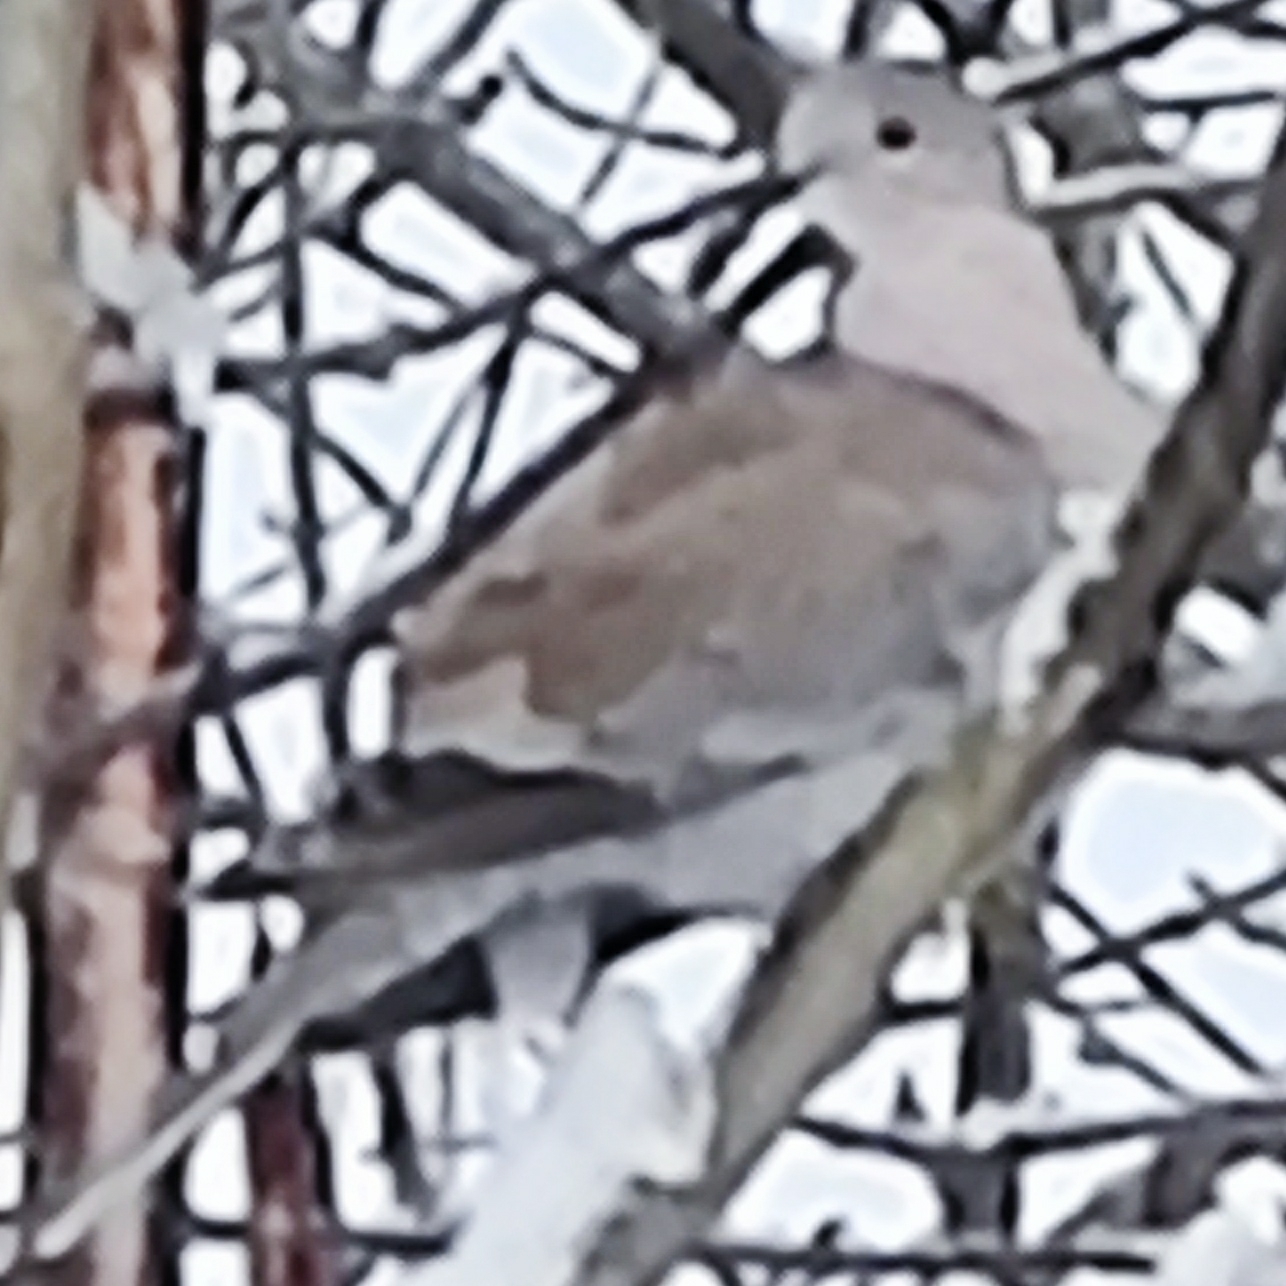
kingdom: Animalia
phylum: Chordata
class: Aves
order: Columbiformes
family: Columbidae
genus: Streptopelia
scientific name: Streptopelia decaocto
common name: Eurasian collared dove
